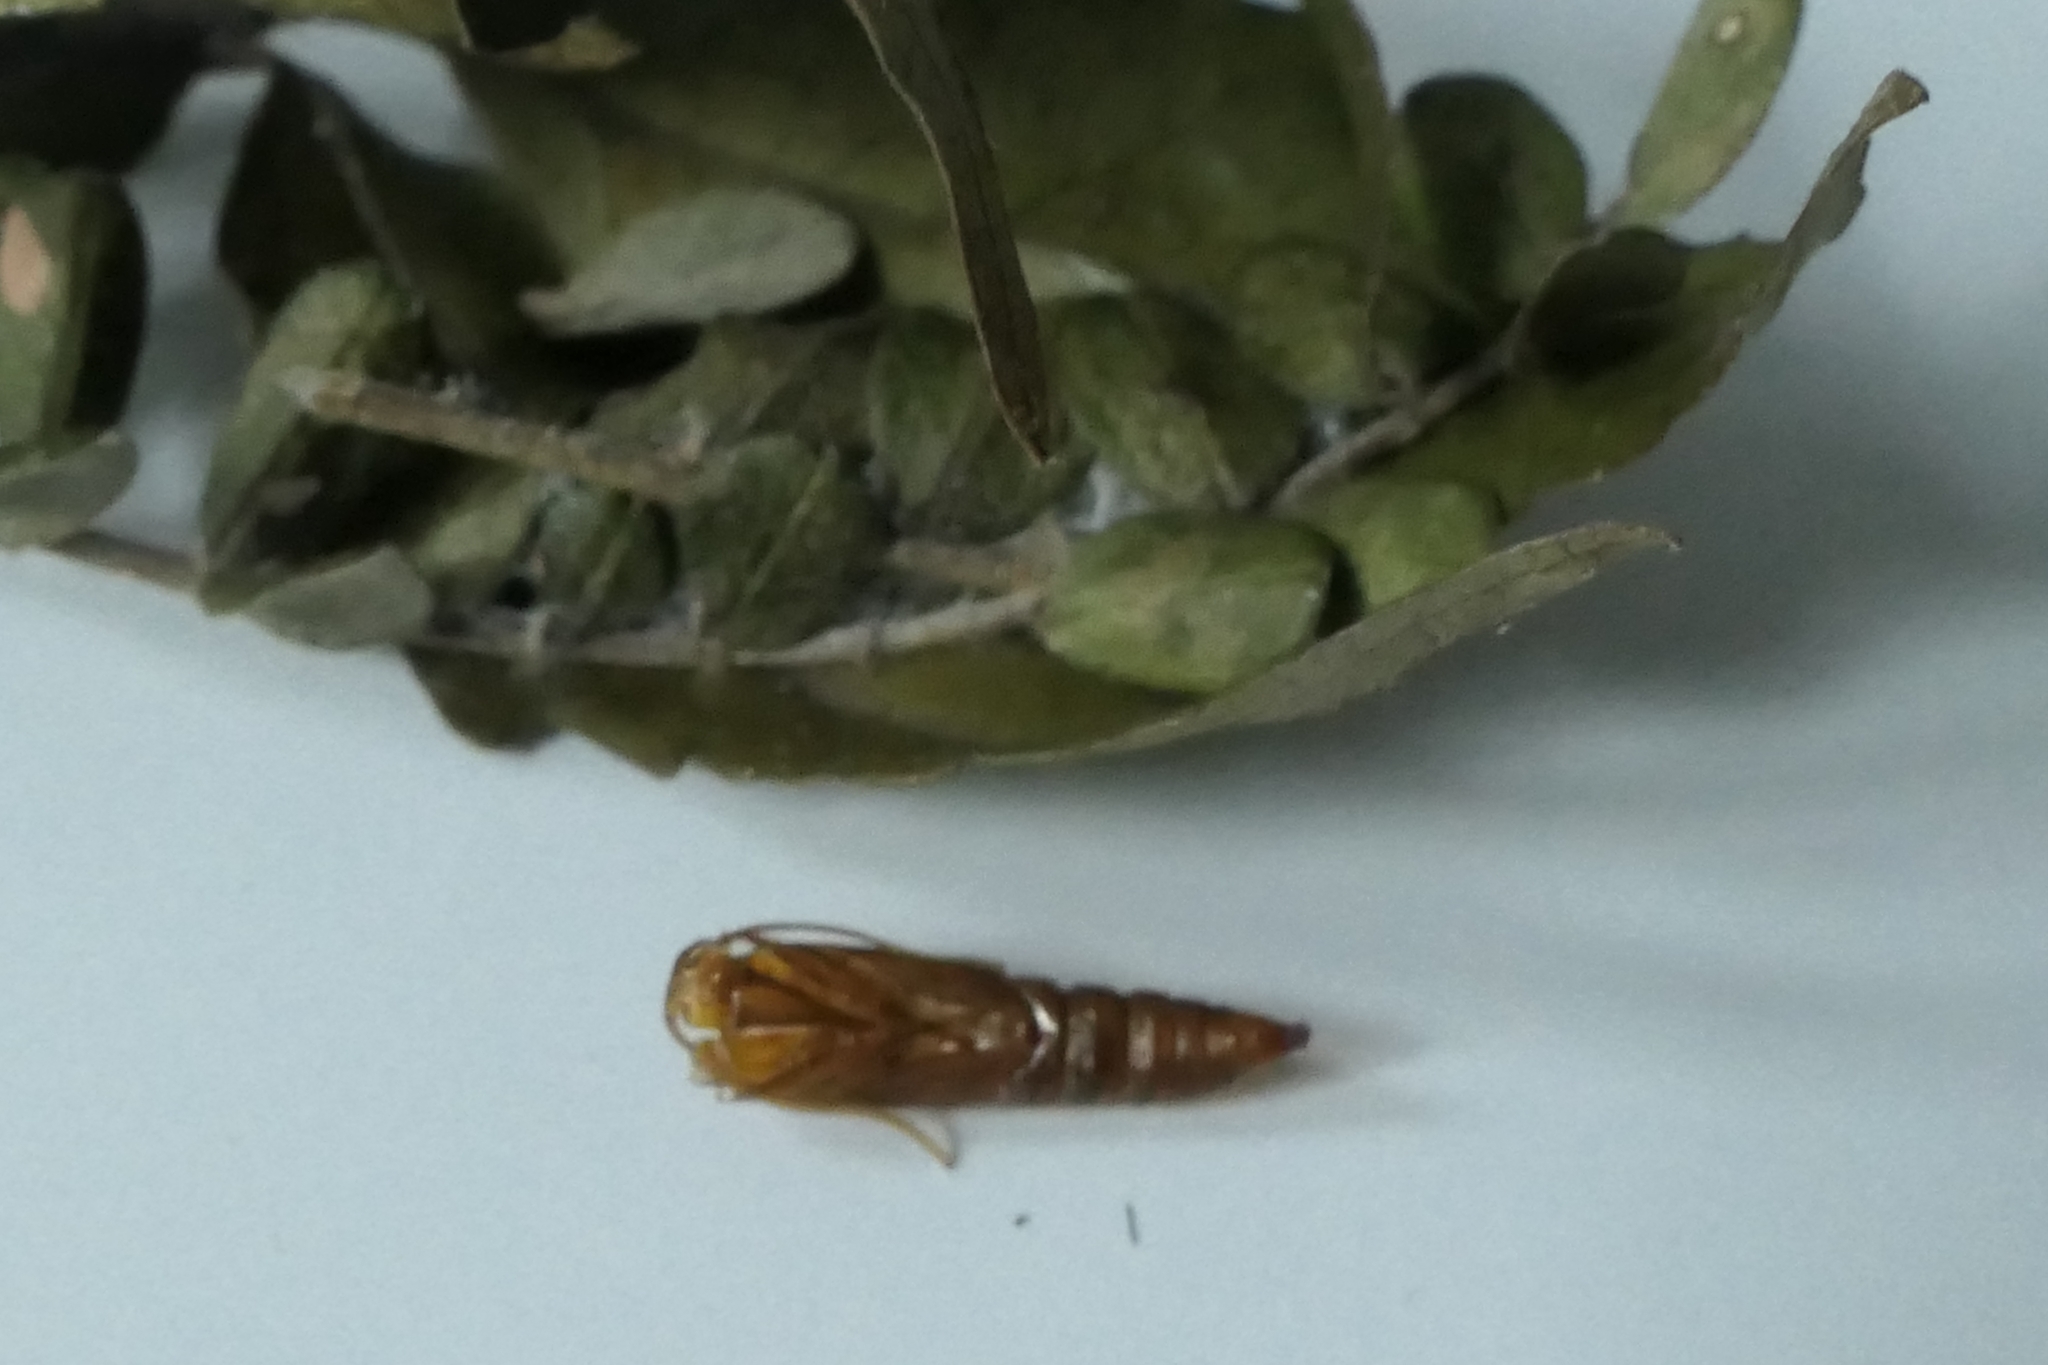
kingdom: Animalia
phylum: Arthropoda
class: Insecta
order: Lepidoptera
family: Tortricidae
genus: Harmologa
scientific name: Harmologa amplexana
